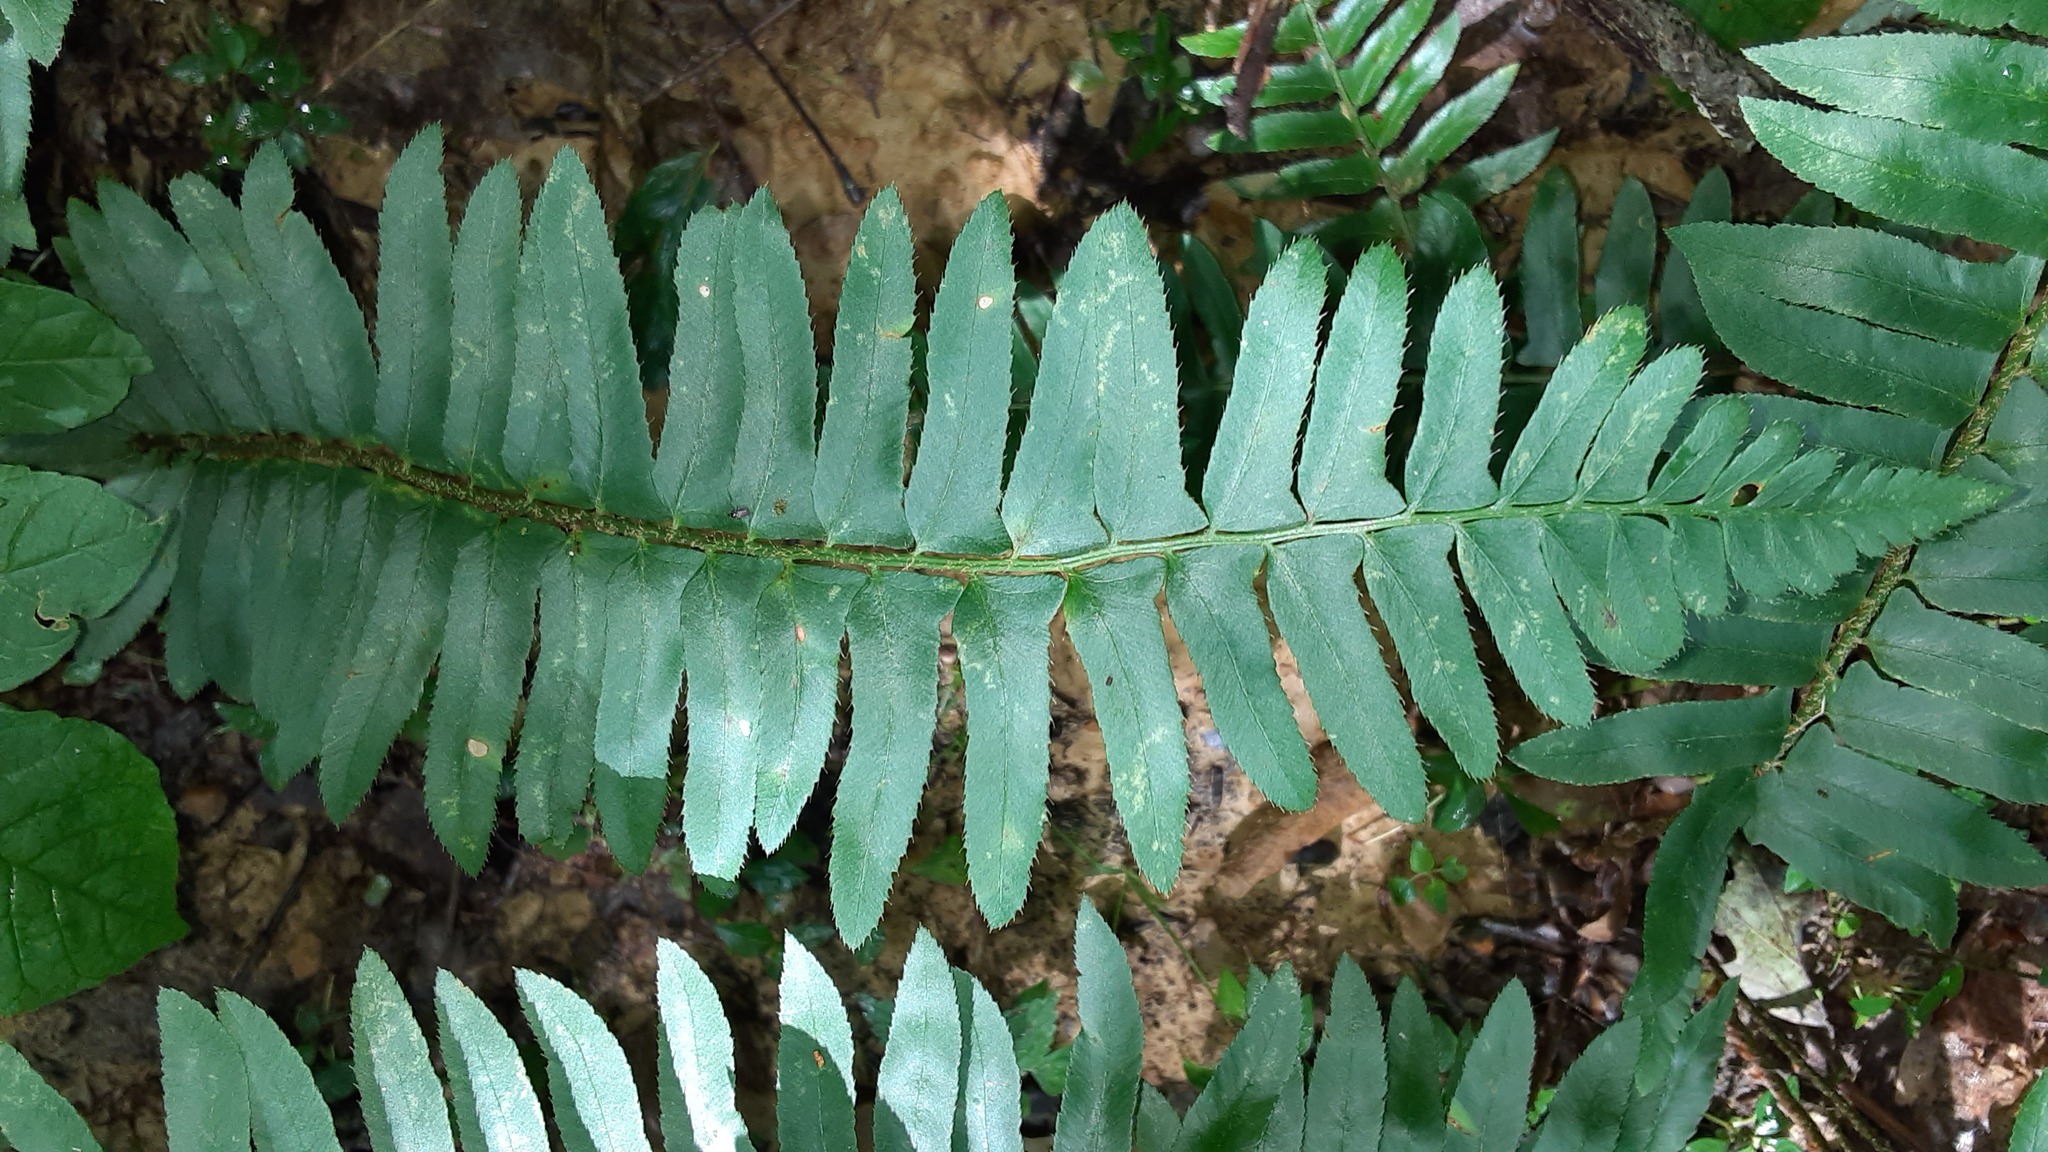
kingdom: Plantae
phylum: Tracheophyta
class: Polypodiopsida
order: Polypodiales
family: Dryopteridaceae
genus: Polystichum
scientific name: Polystichum acrostichoides
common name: Christmas fern
